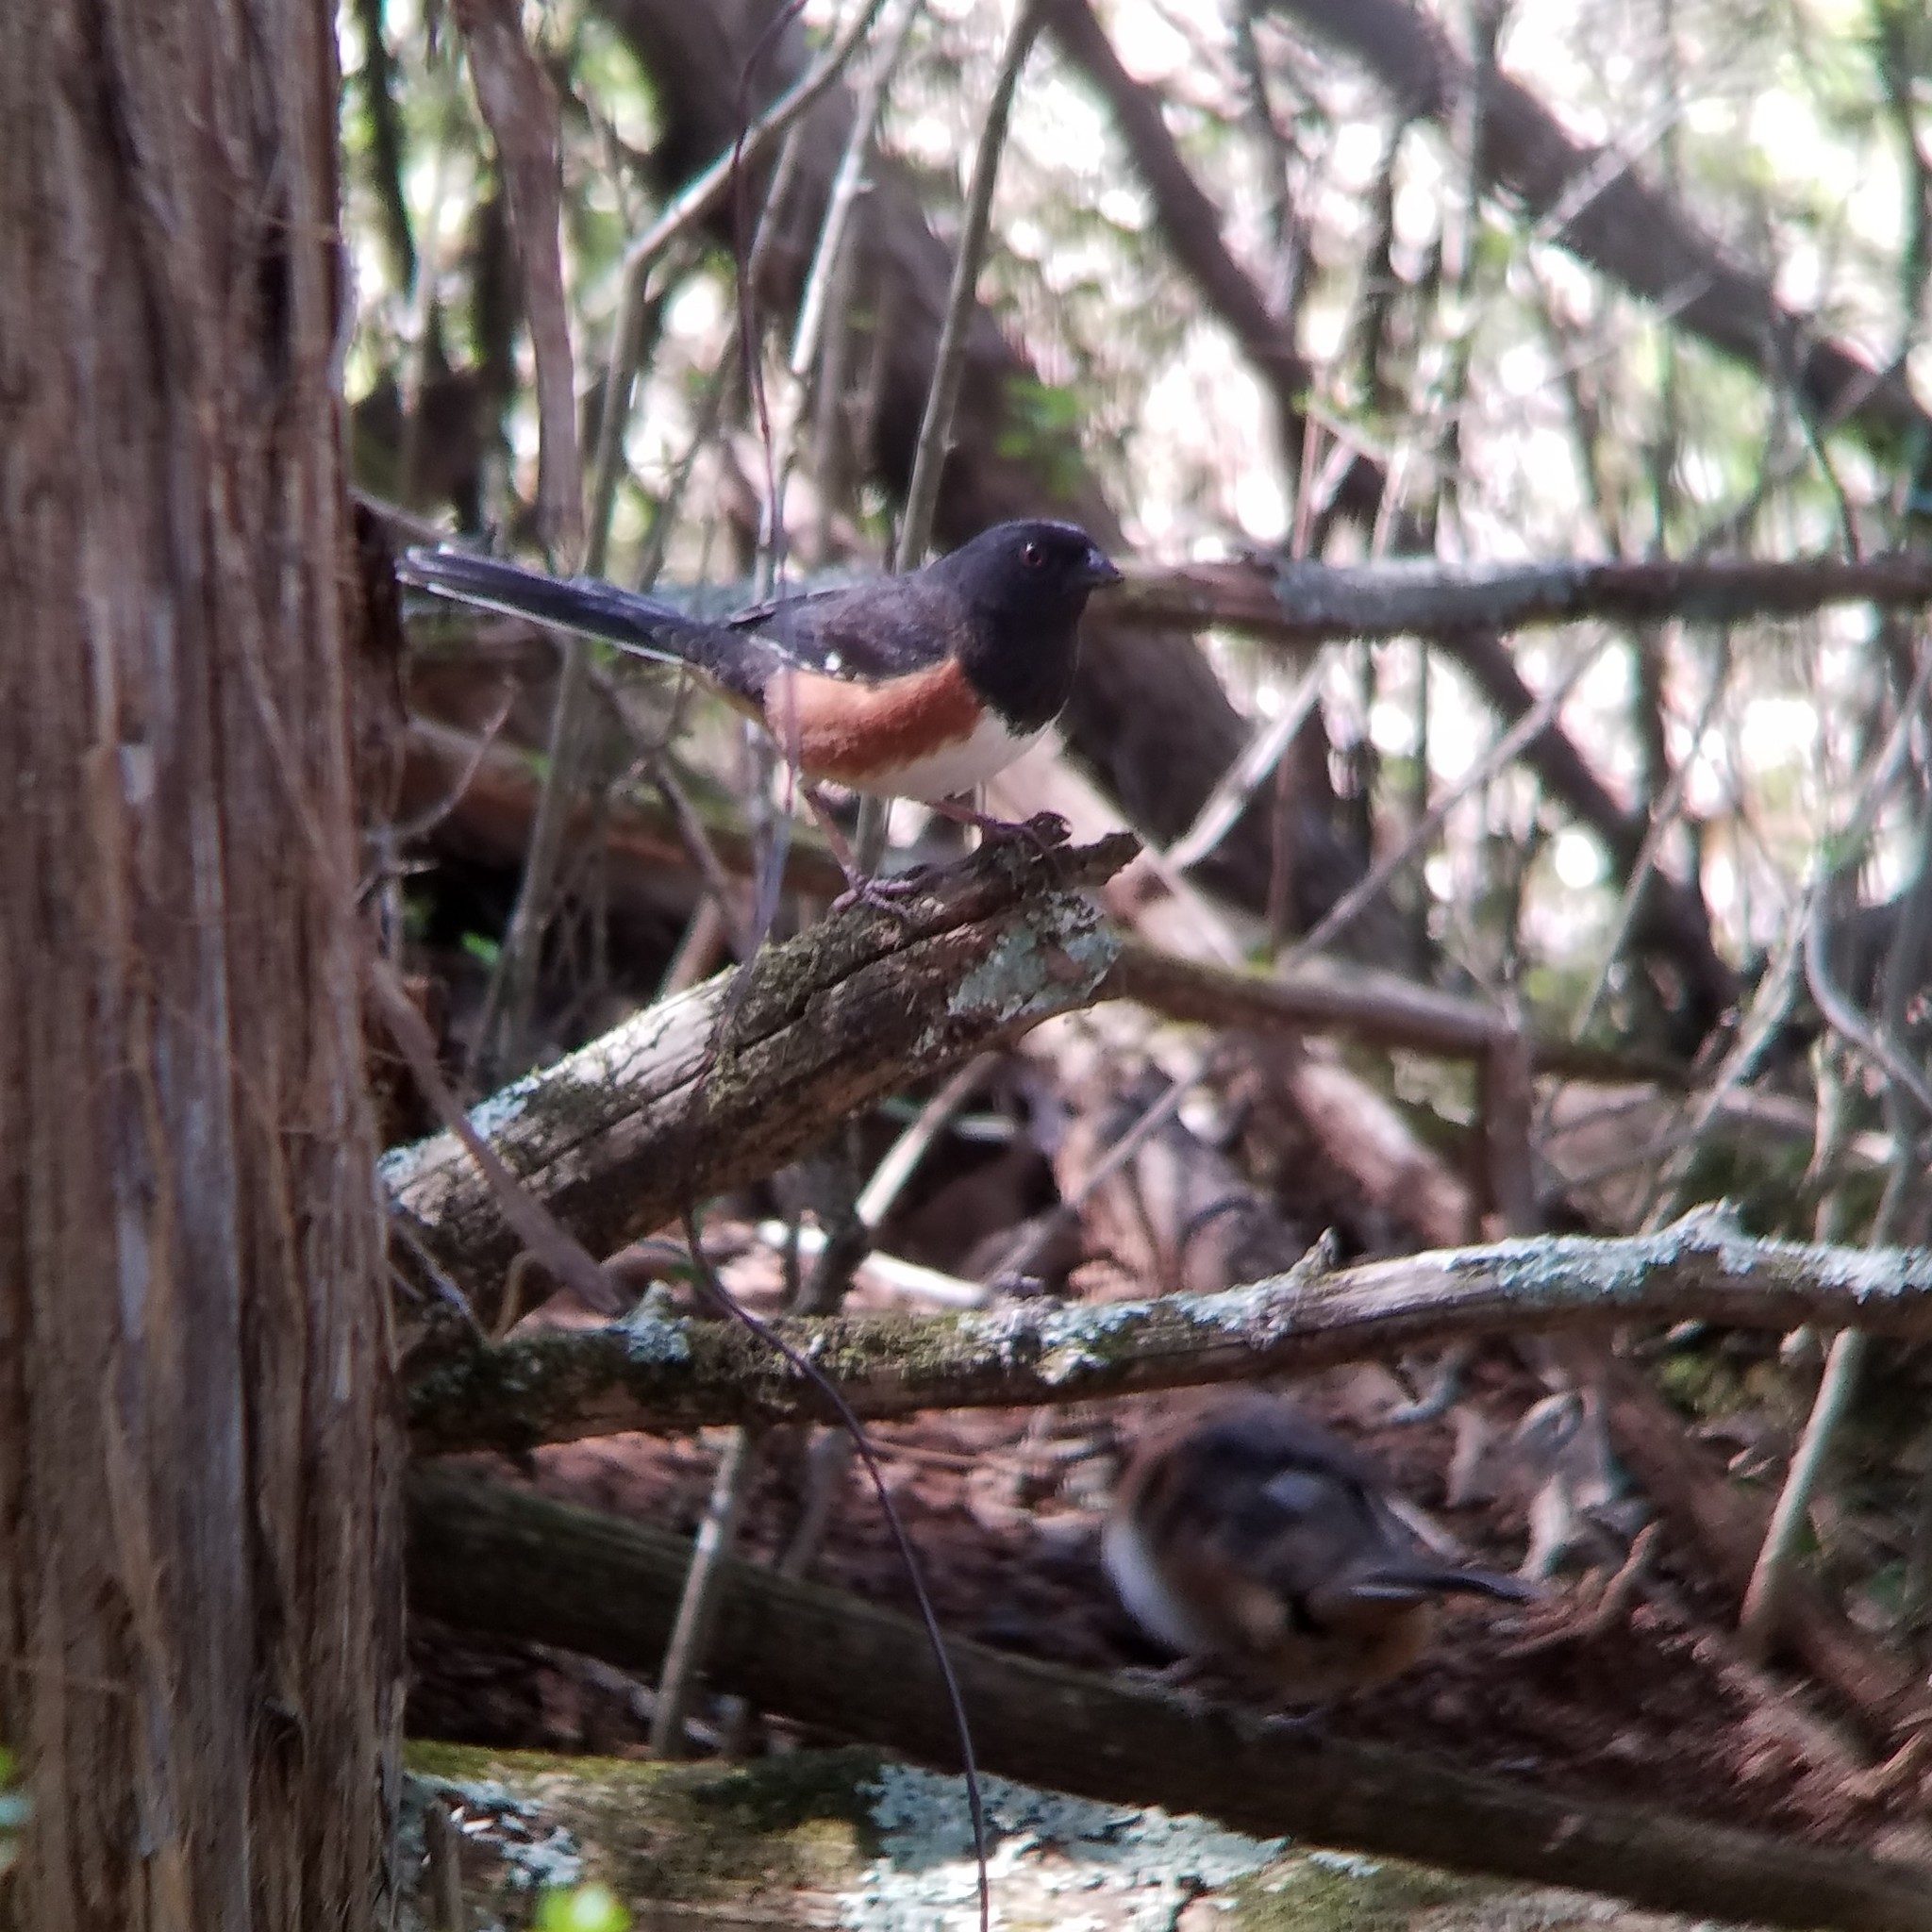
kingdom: Animalia
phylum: Chordata
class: Aves
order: Passeriformes
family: Passerellidae
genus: Pipilo
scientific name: Pipilo erythrophthalmus
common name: Eastern towhee
